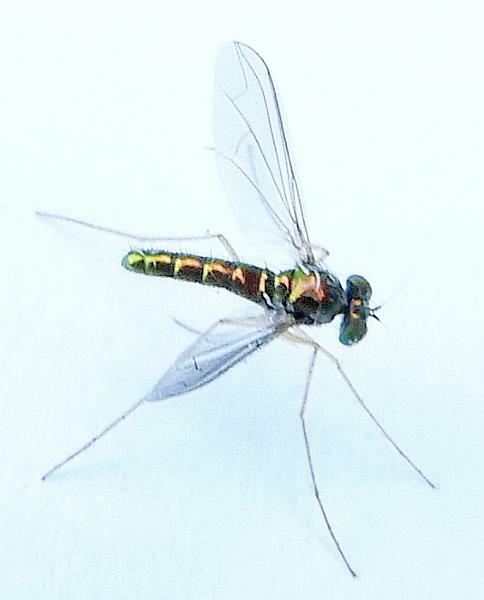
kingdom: Animalia
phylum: Arthropoda
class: Insecta
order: Diptera
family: Dolichopodidae
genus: Amblypsilopus
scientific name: Amblypsilopus scintillans
